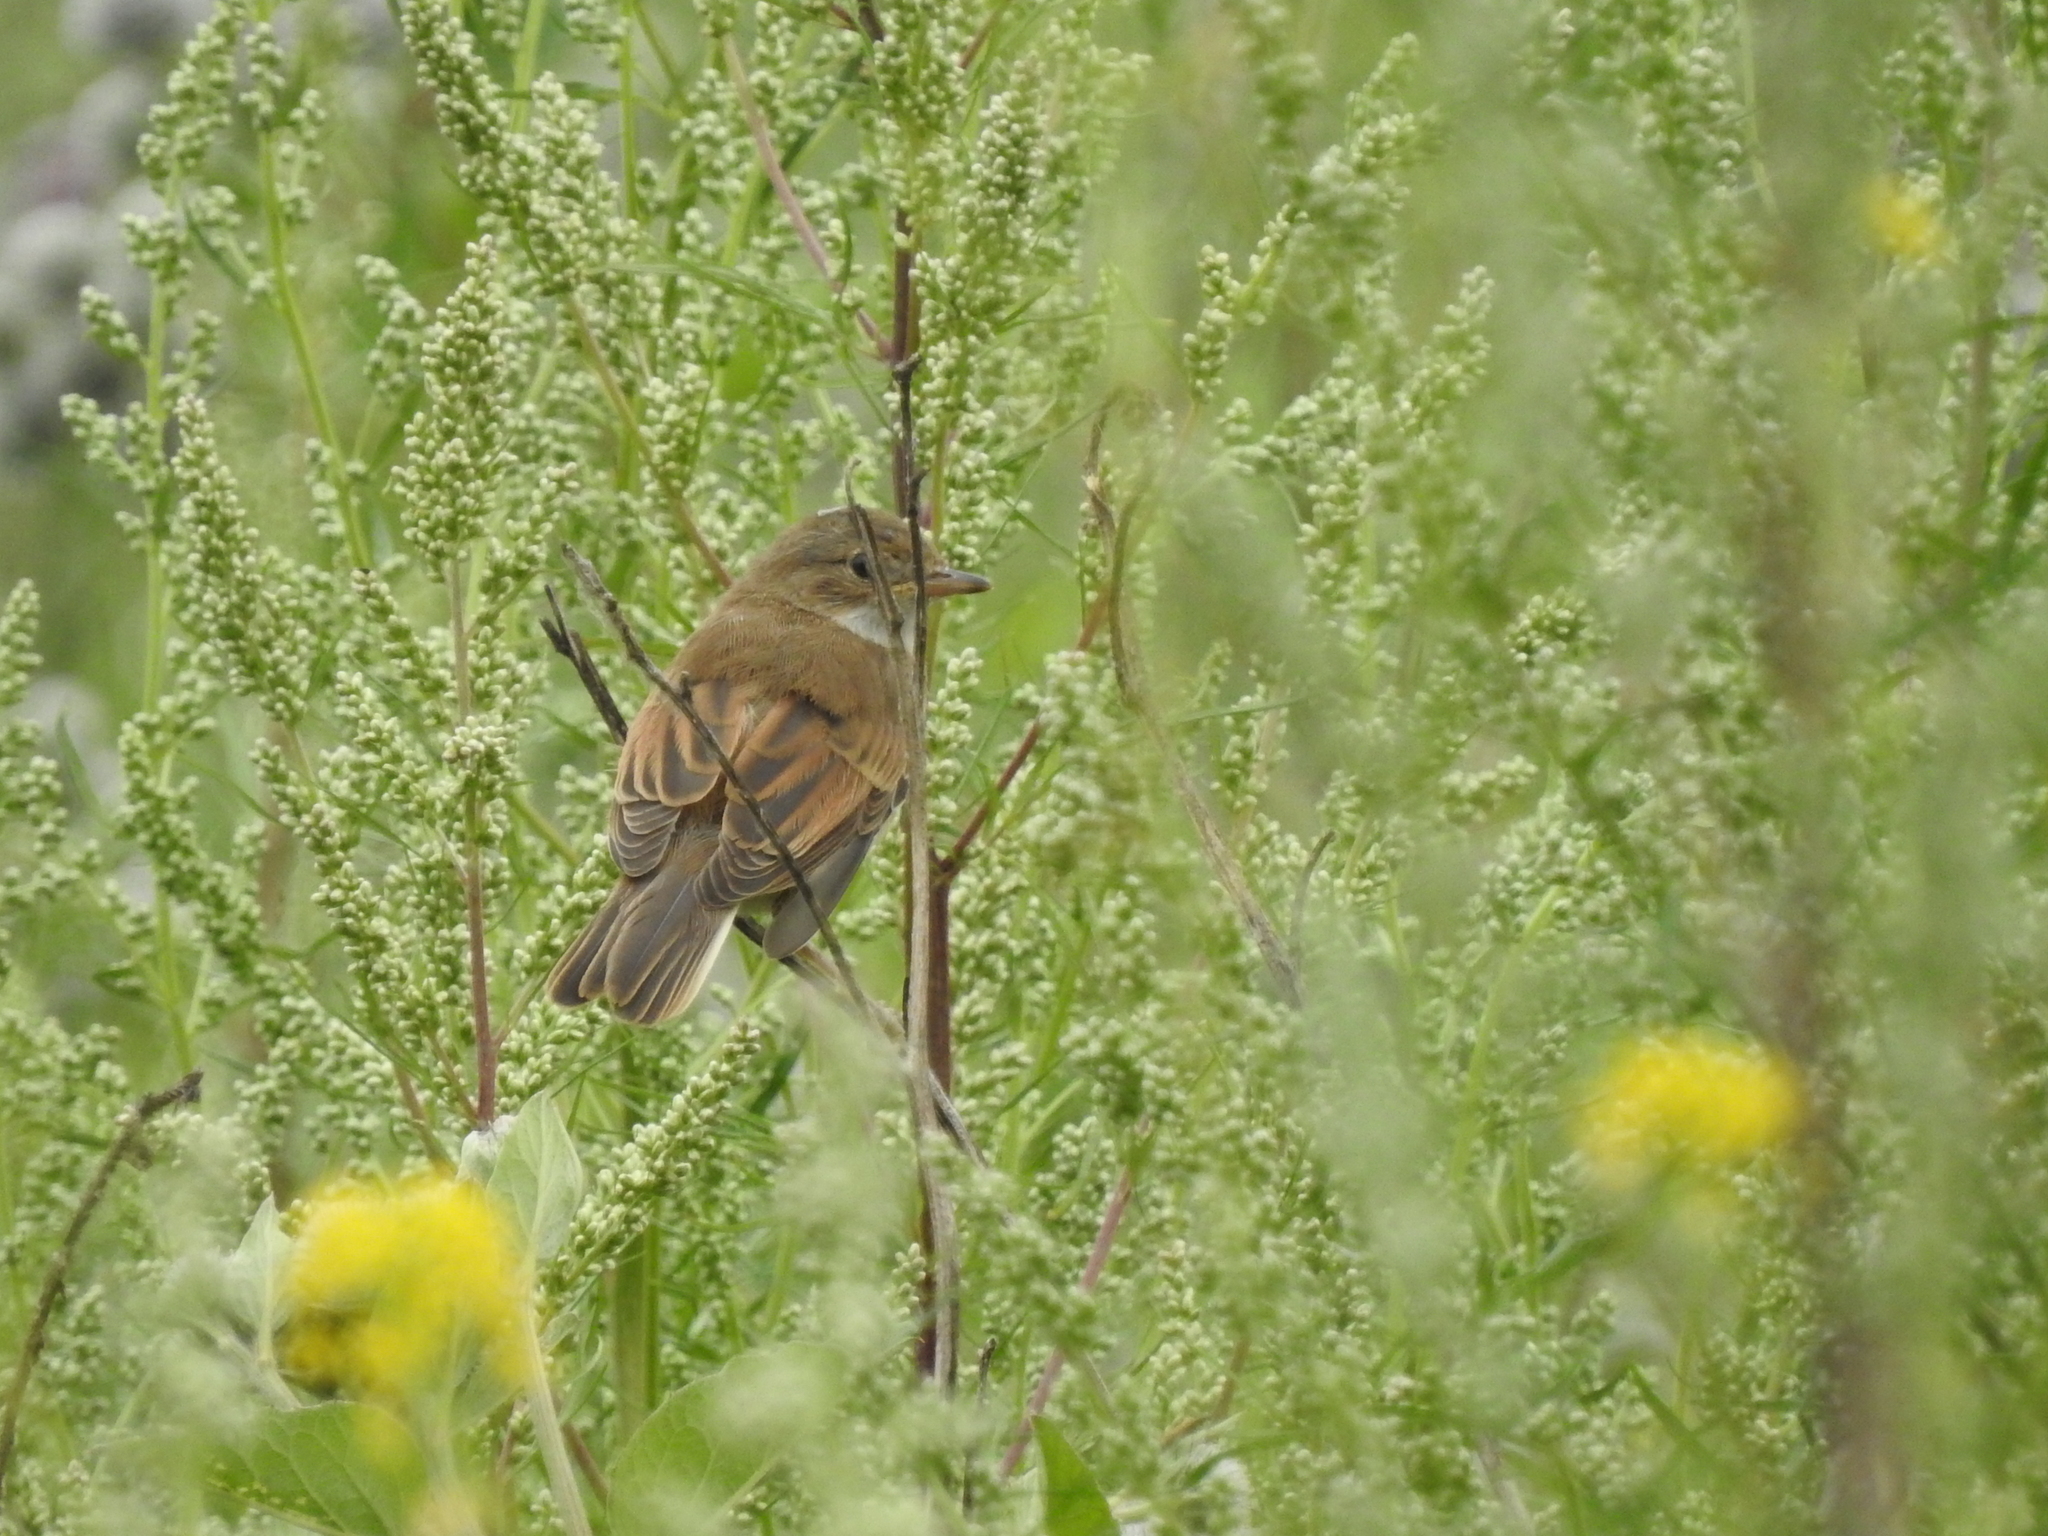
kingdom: Animalia
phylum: Chordata
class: Aves
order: Passeriformes
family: Sylviidae
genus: Sylvia
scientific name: Sylvia communis
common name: Common whitethroat
